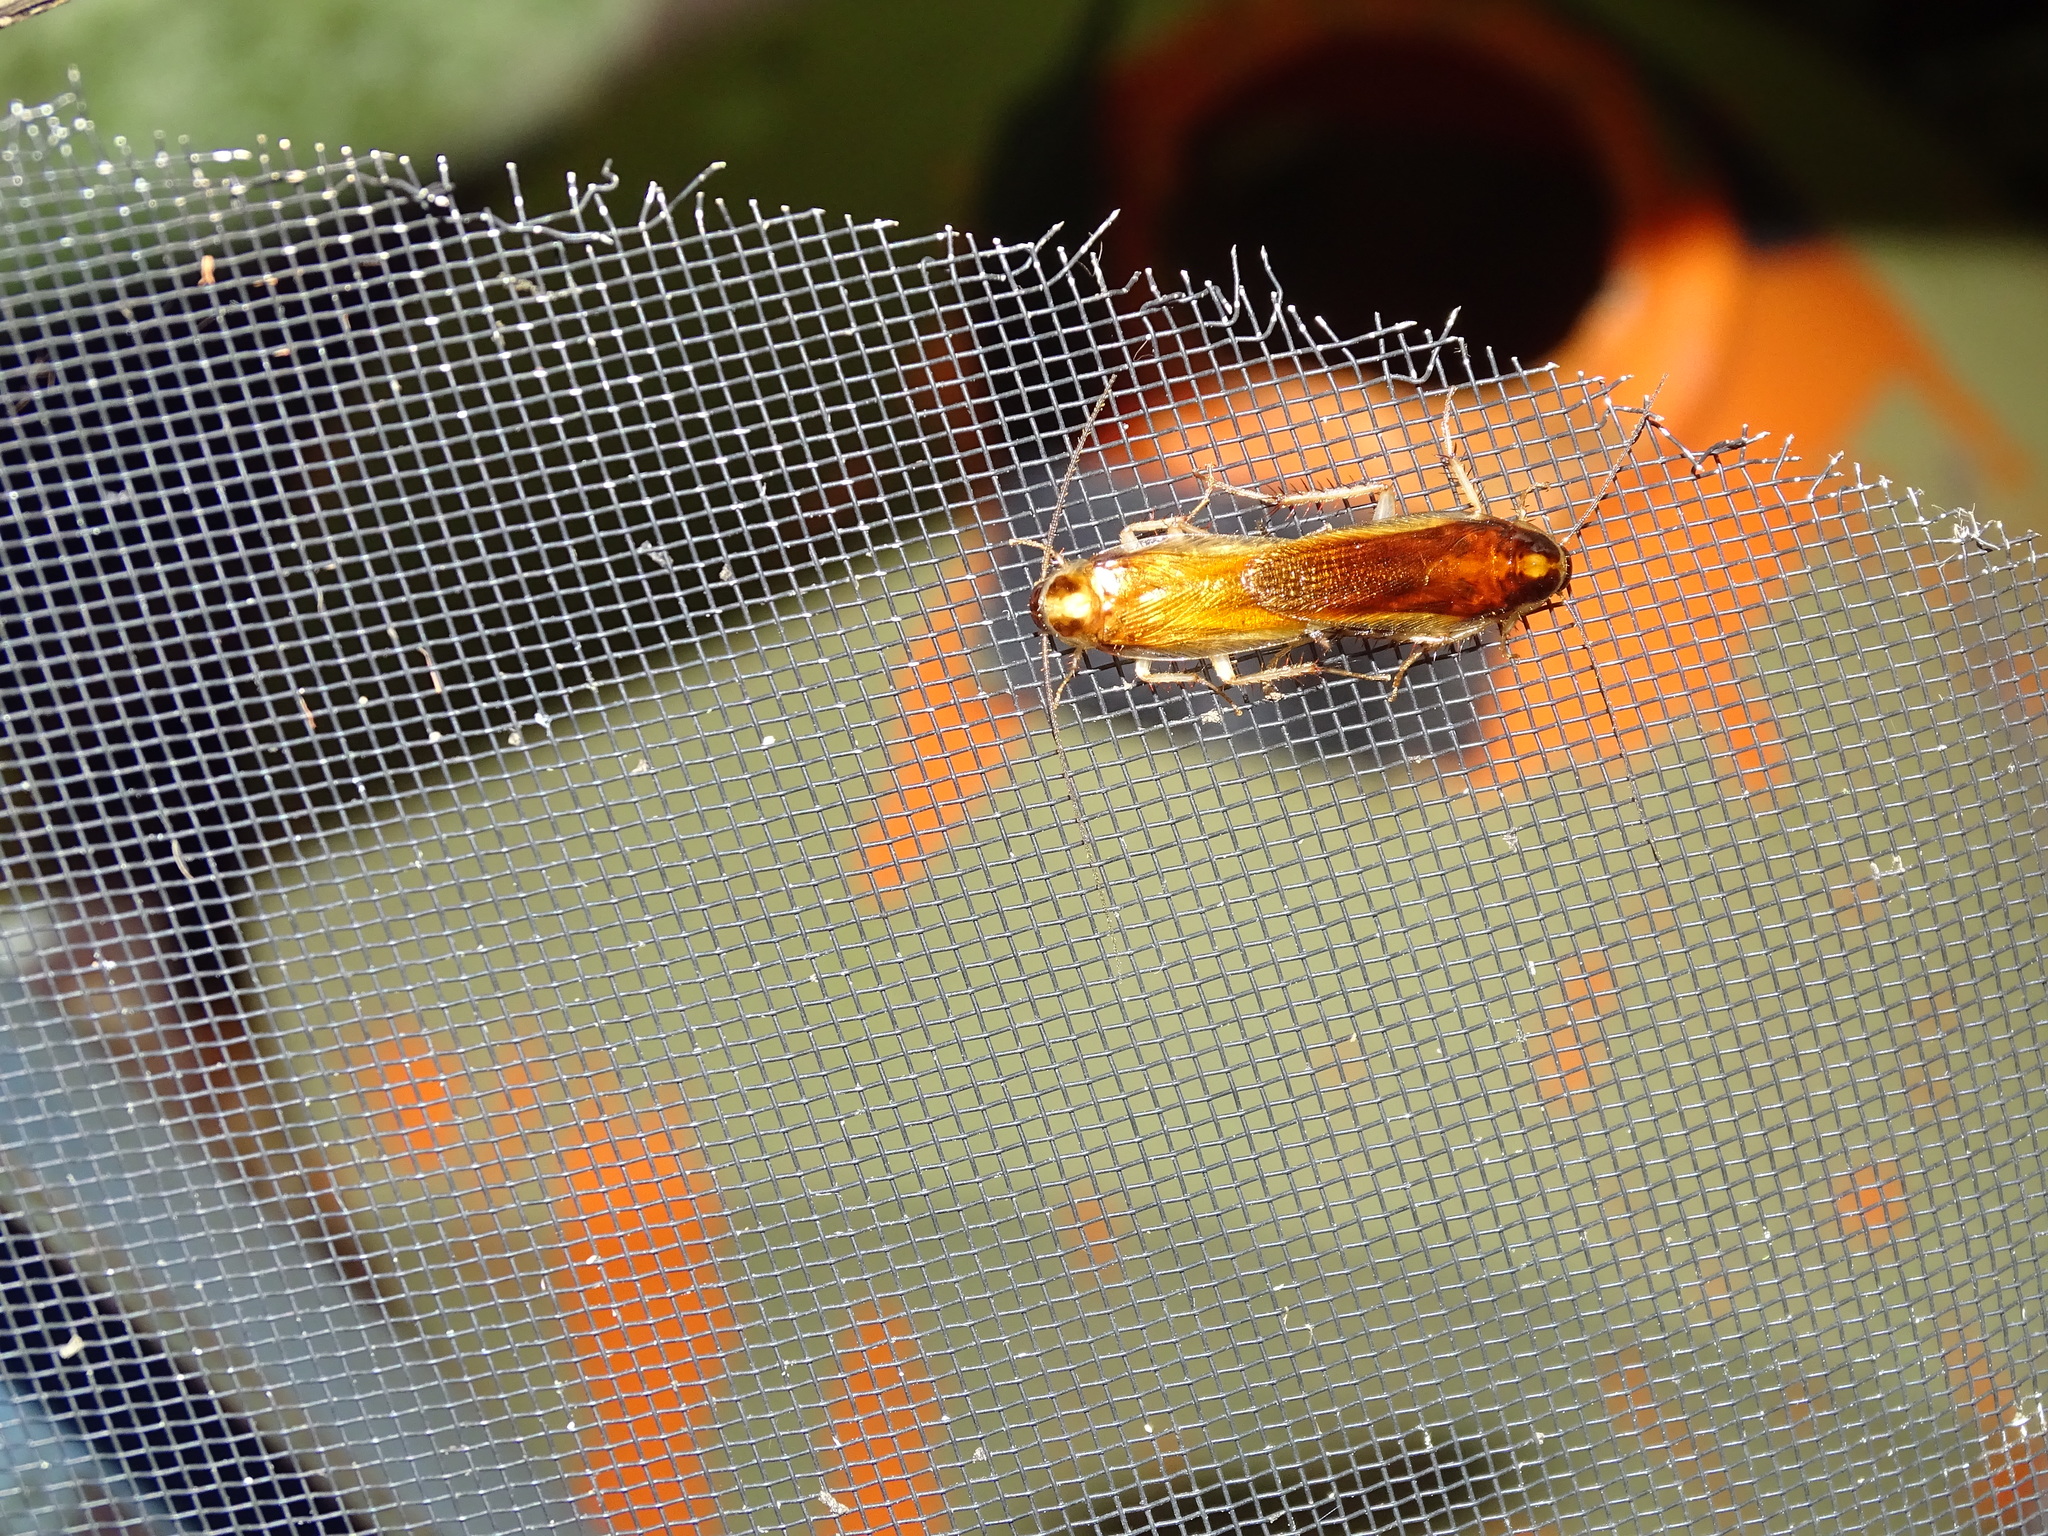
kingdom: Animalia
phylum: Arthropoda
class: Insecta
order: Blattodea
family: Ectobiidae
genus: Ischnoptera
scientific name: Ischnoptera bilunata
